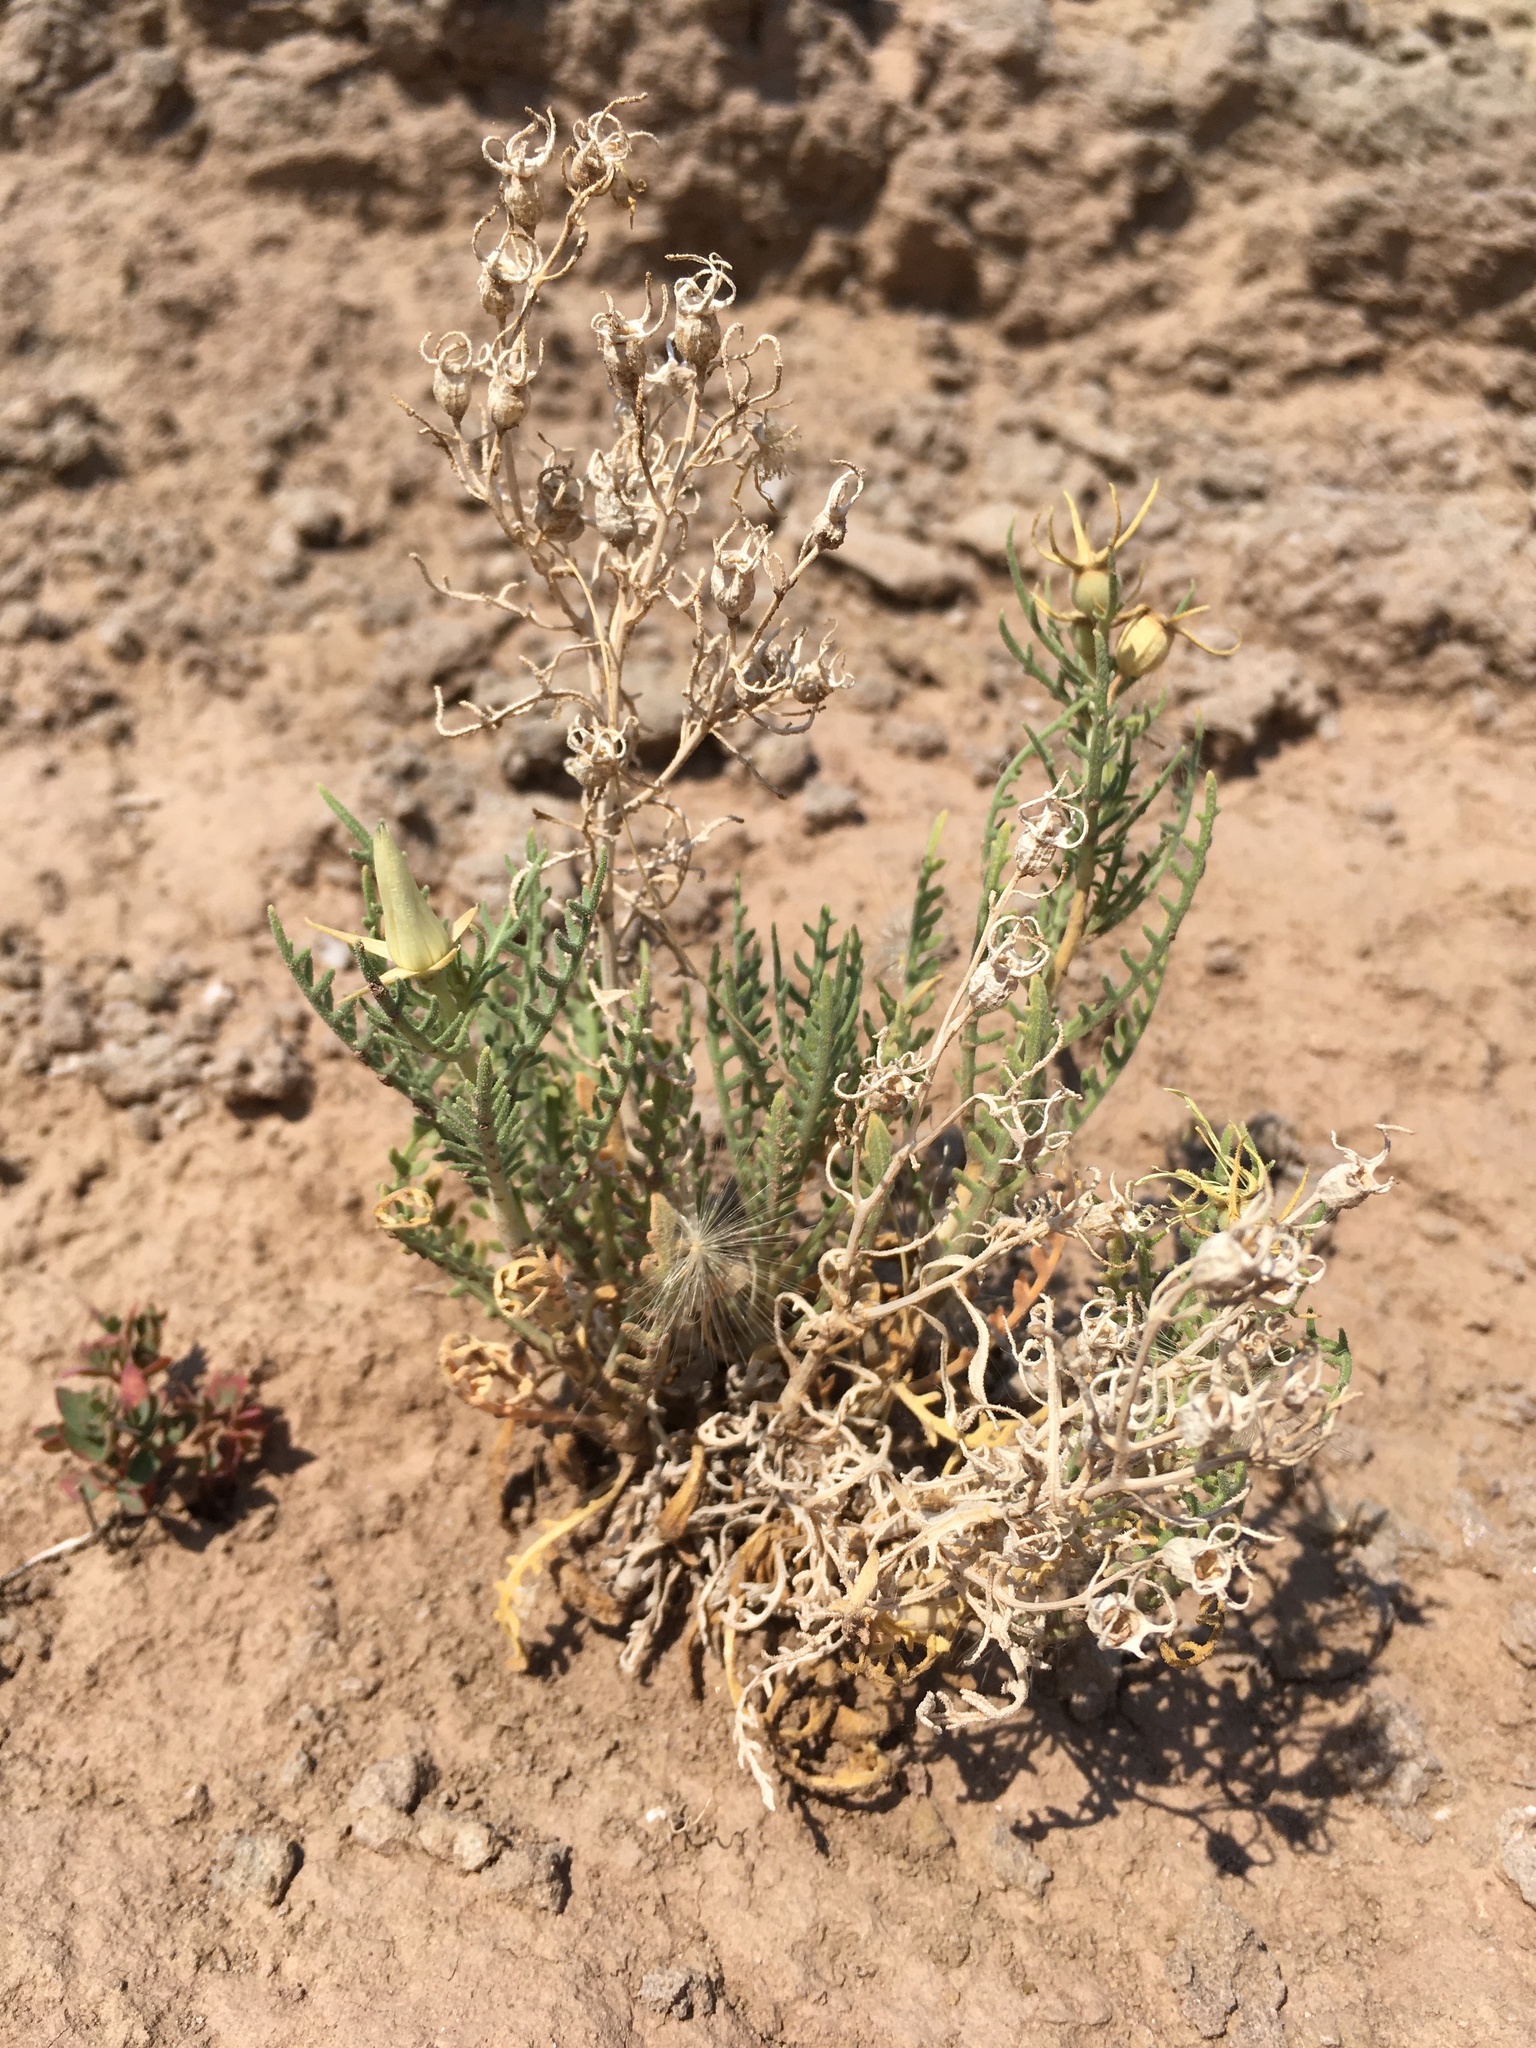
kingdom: Plantae
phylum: Tracheophyta
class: Magnoliopsida
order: Cornales
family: Loasaceae
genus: Mentzelia
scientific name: Mentzelia humilis
